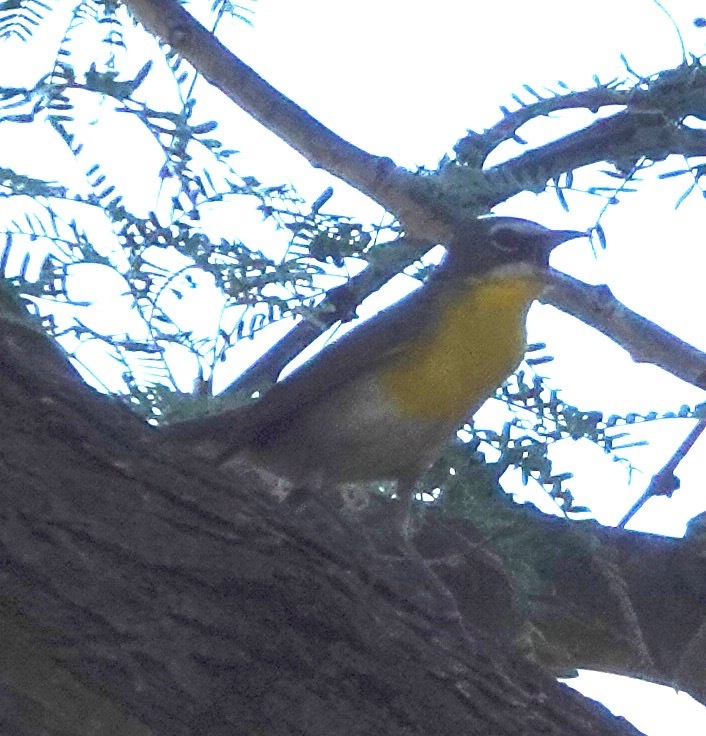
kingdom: Animalia
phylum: Chordata
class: Aves
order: Passeriformes
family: Parulidae
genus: Icteria
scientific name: Icteria virens
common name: Yellow-breasted chat
